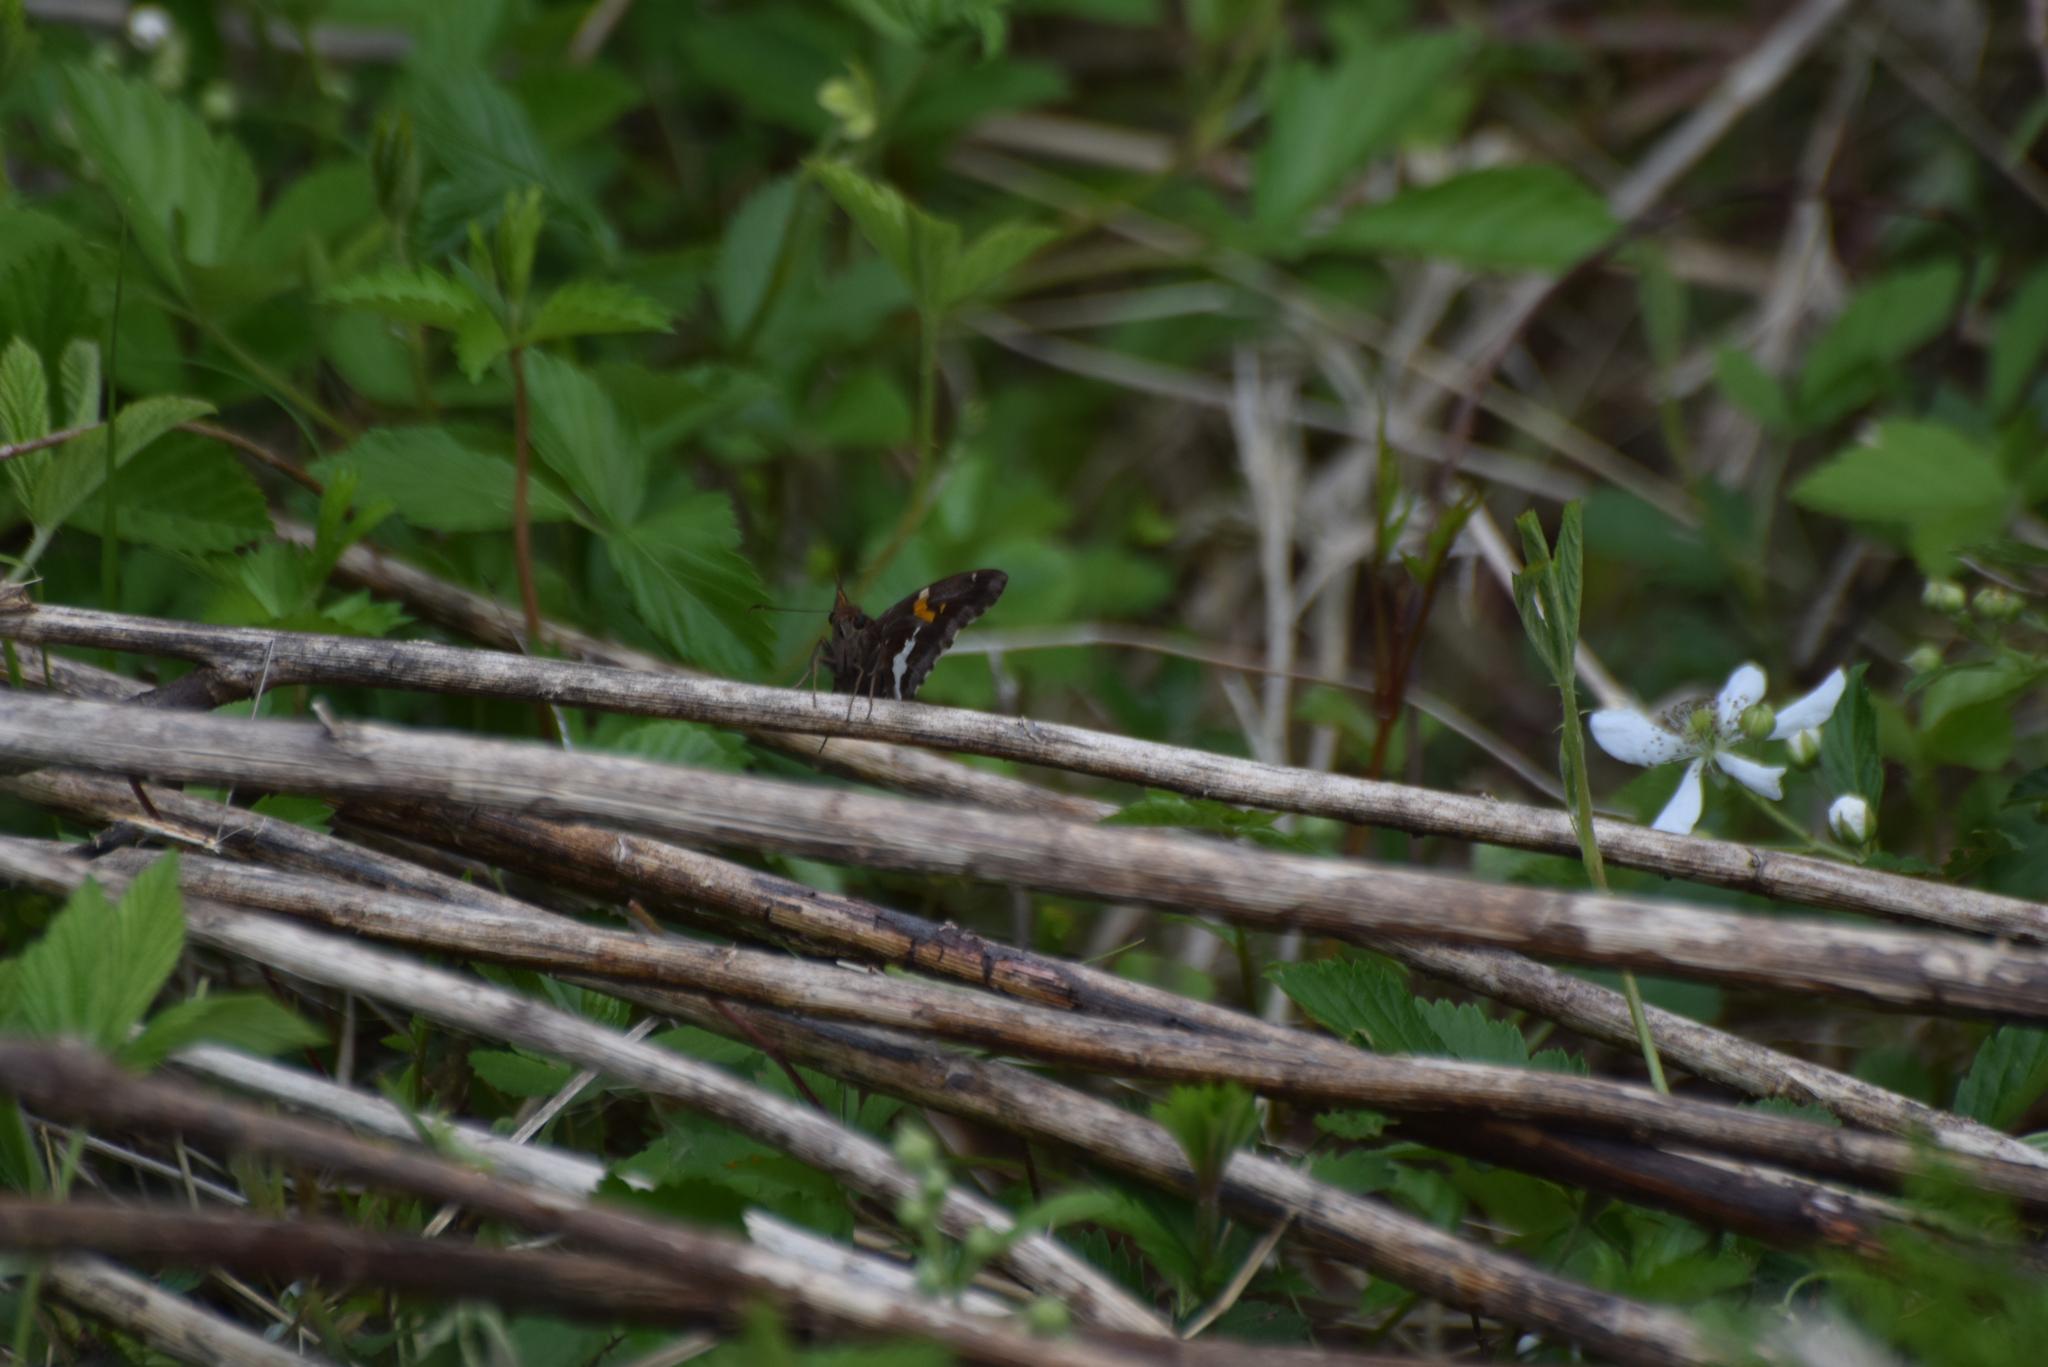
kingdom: Animalia
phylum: Arthropoda
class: Insecta
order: Lepidoptera
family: Hesperiidae
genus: Epargyreus
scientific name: Epargyreus clarus
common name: Silver-spotted skipper
